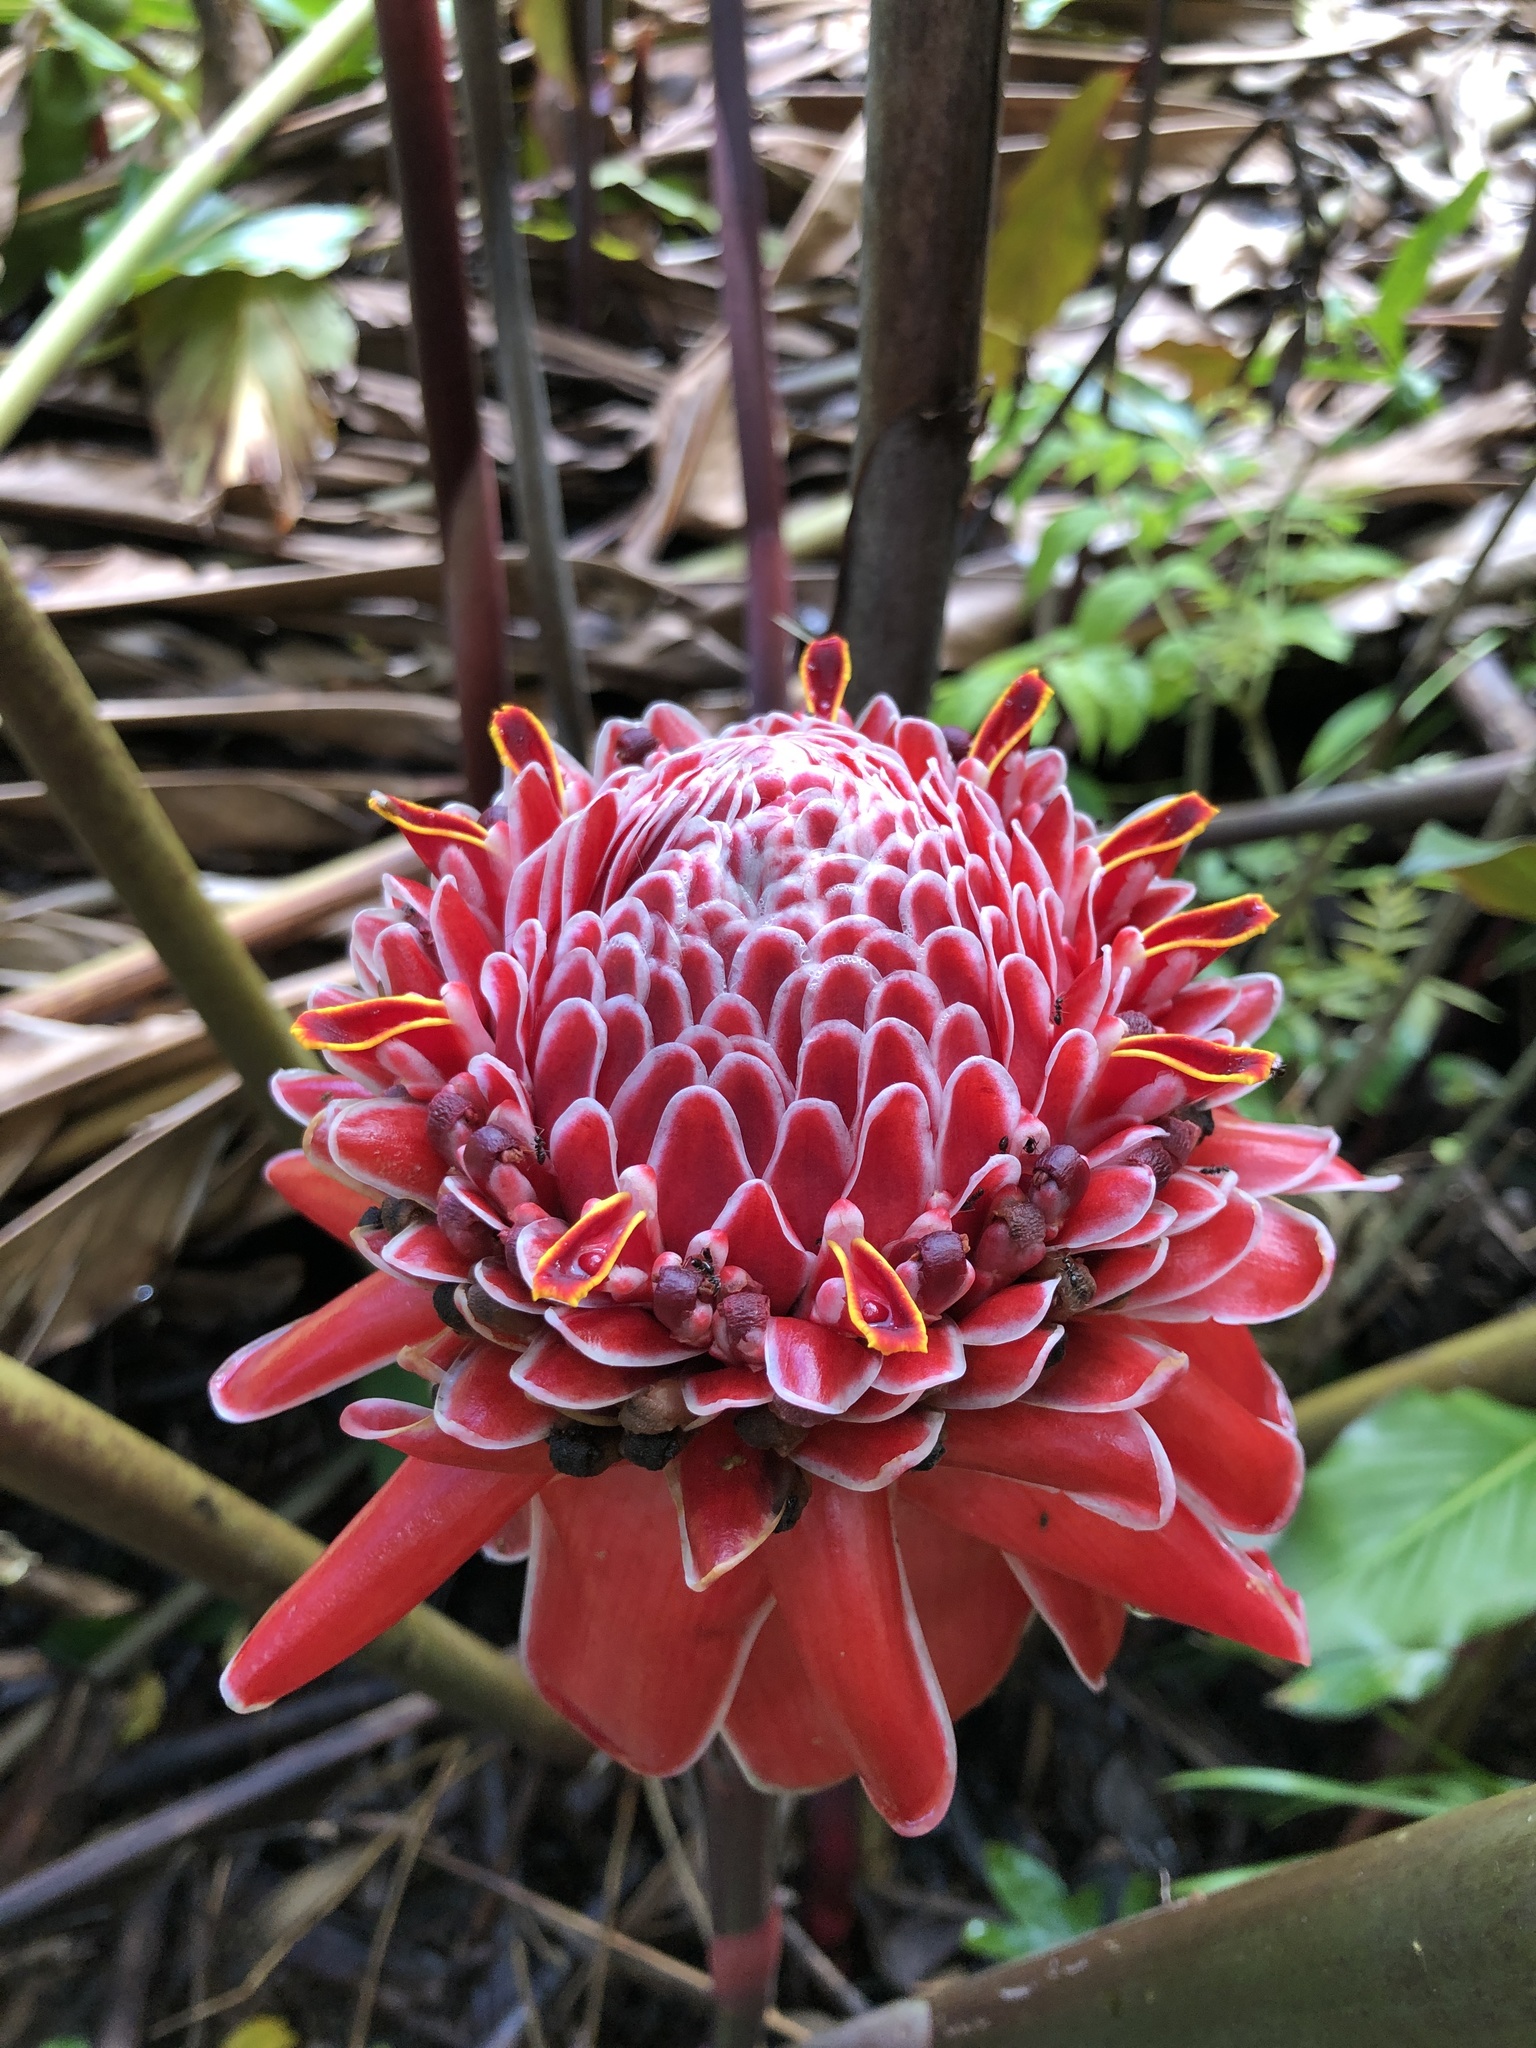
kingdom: Plantae
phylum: Tracheophyta
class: Liliopsida
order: Zingiberales
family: Zingiberaceae
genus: Etlingera
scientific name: Etlingera elatior
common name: Philippine waxflower
